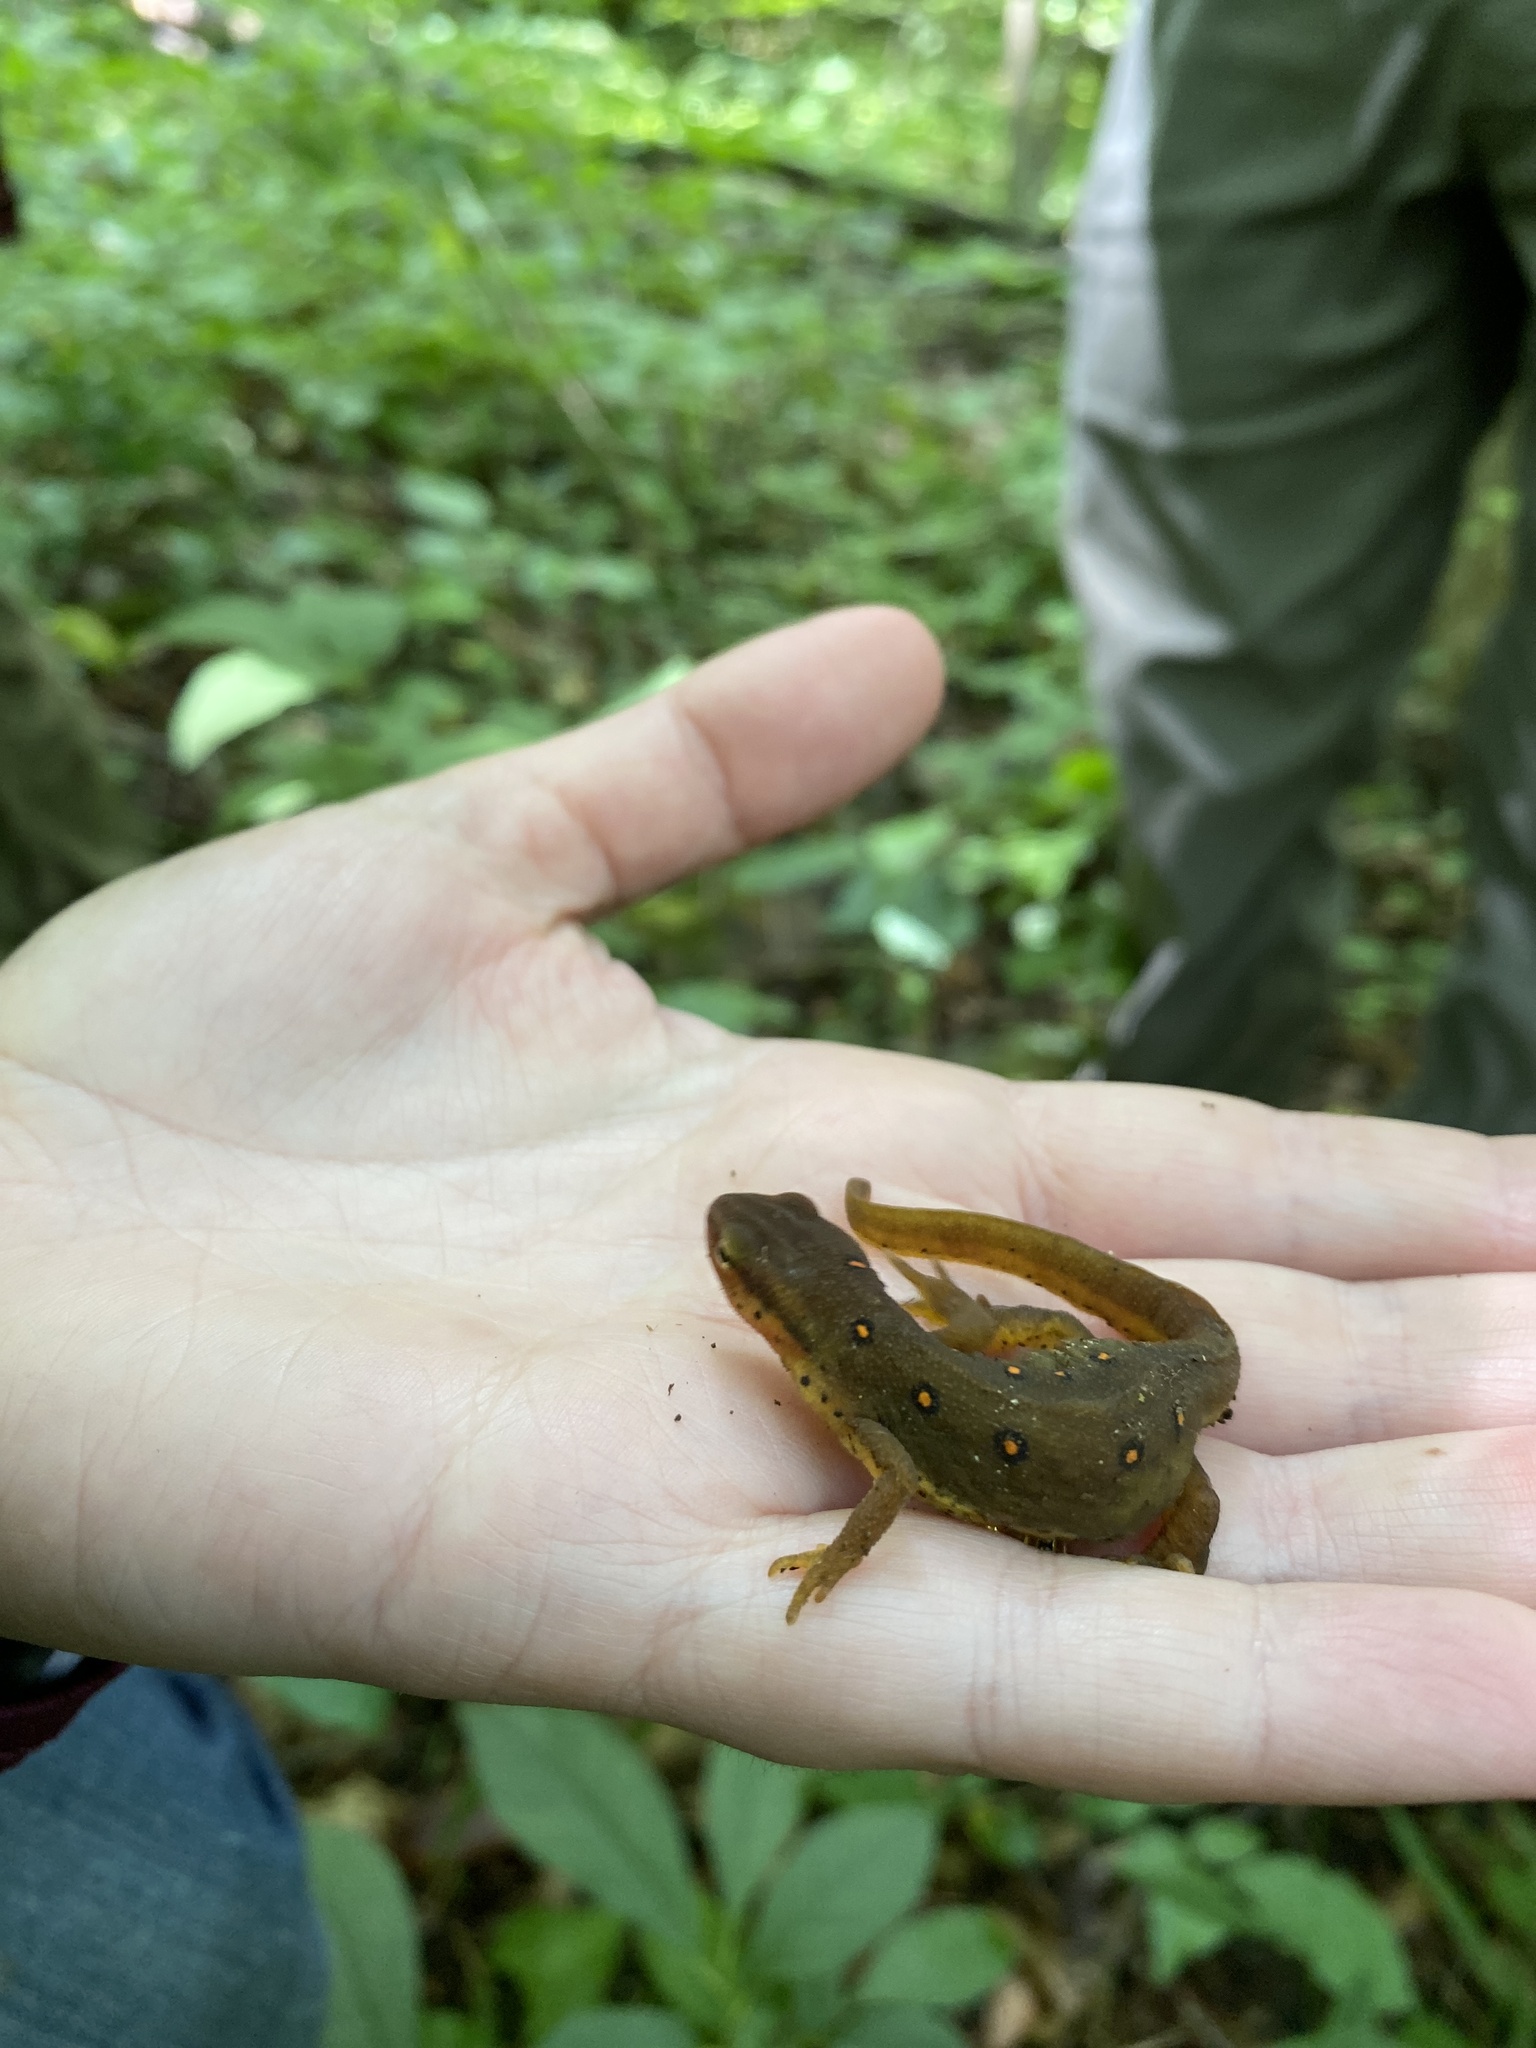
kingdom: Animalia
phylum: Chordata
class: Amphibia
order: Caudata
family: Salamandridae
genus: Notophthalmus
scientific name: Notophthalmus viridescens
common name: Eastern newt
